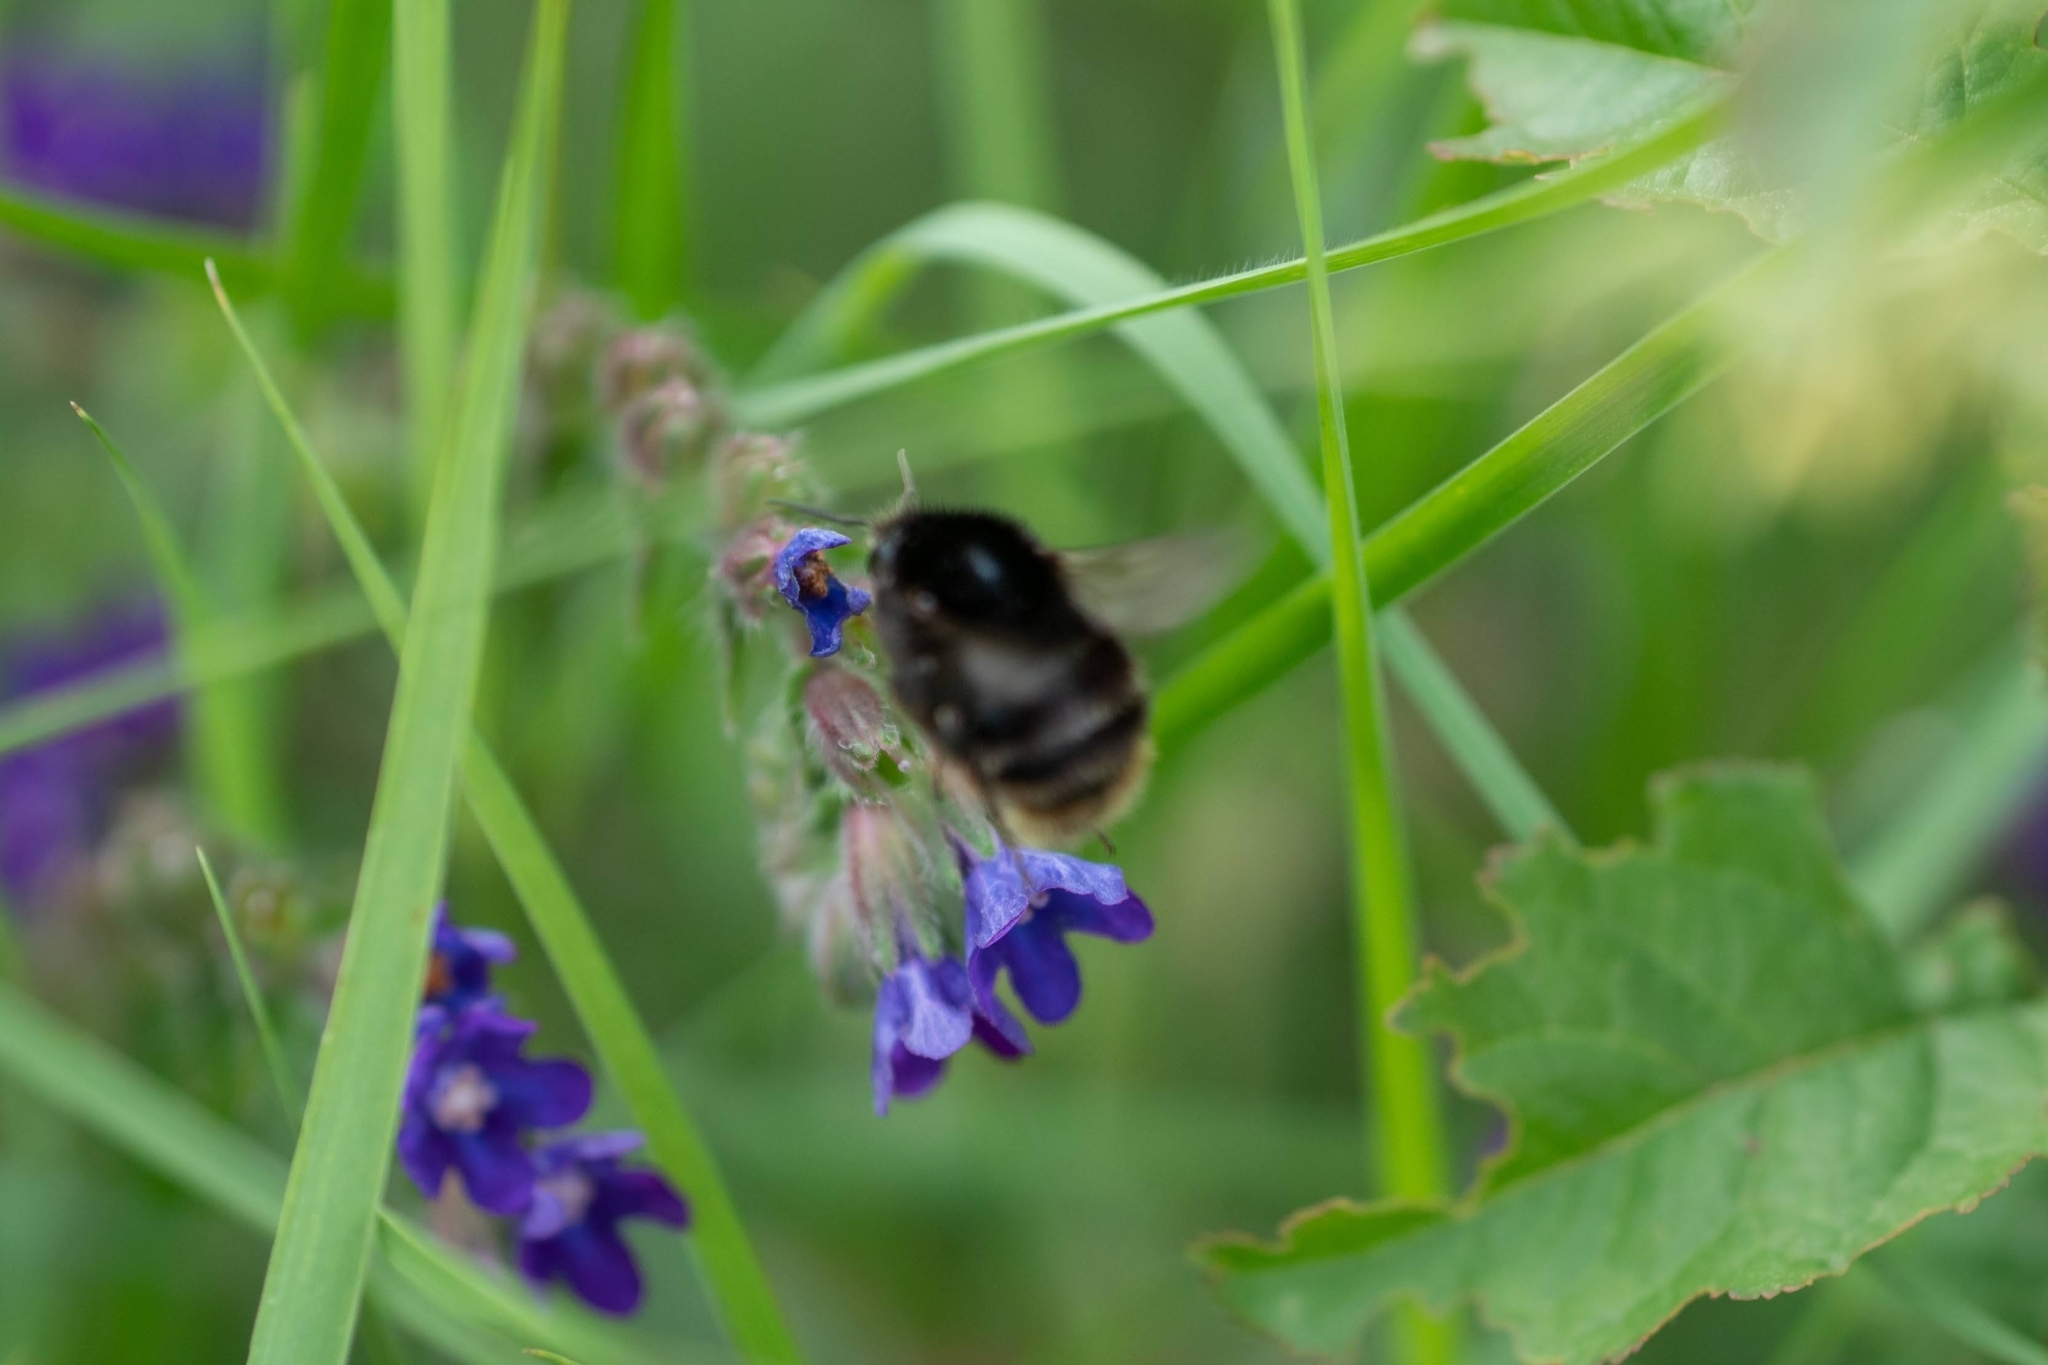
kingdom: Animalia
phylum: Arthropoda
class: Insecta
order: Hymenoptera
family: Apidae
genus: Bombus
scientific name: Bombus humilis
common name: Brown-banded carder-bee
